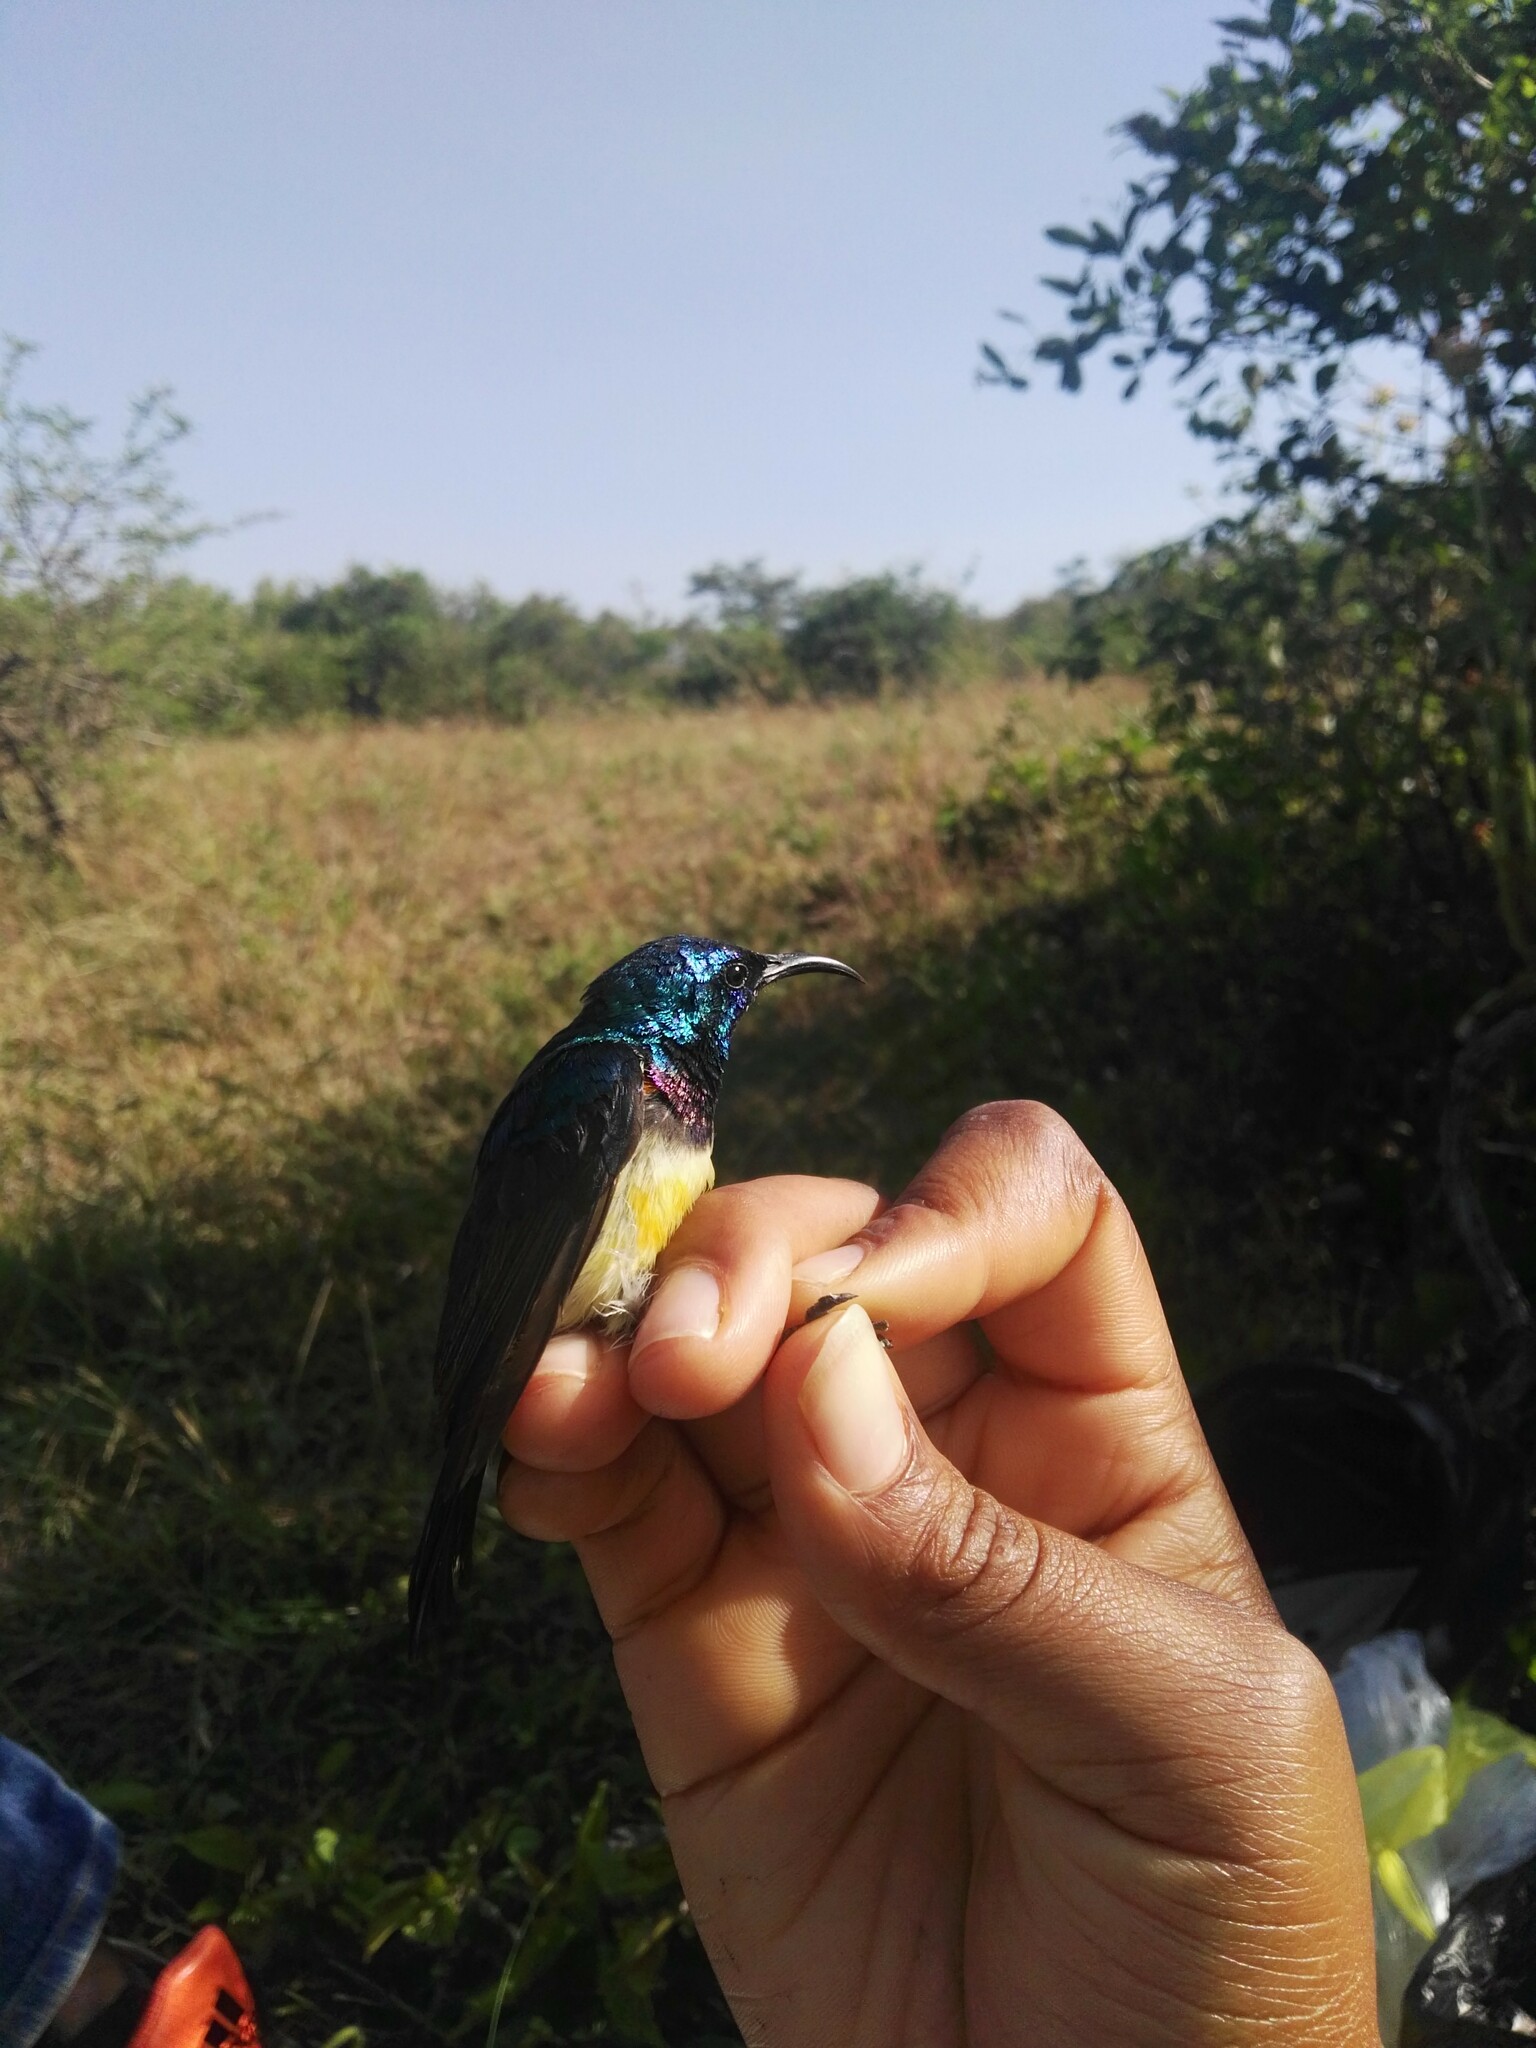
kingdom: Animalia
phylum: Chordata
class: Aves
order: Passeriformes
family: Nectariniidae
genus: Cinnyris
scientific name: Cinnyris venustus
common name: Variable sunbird
